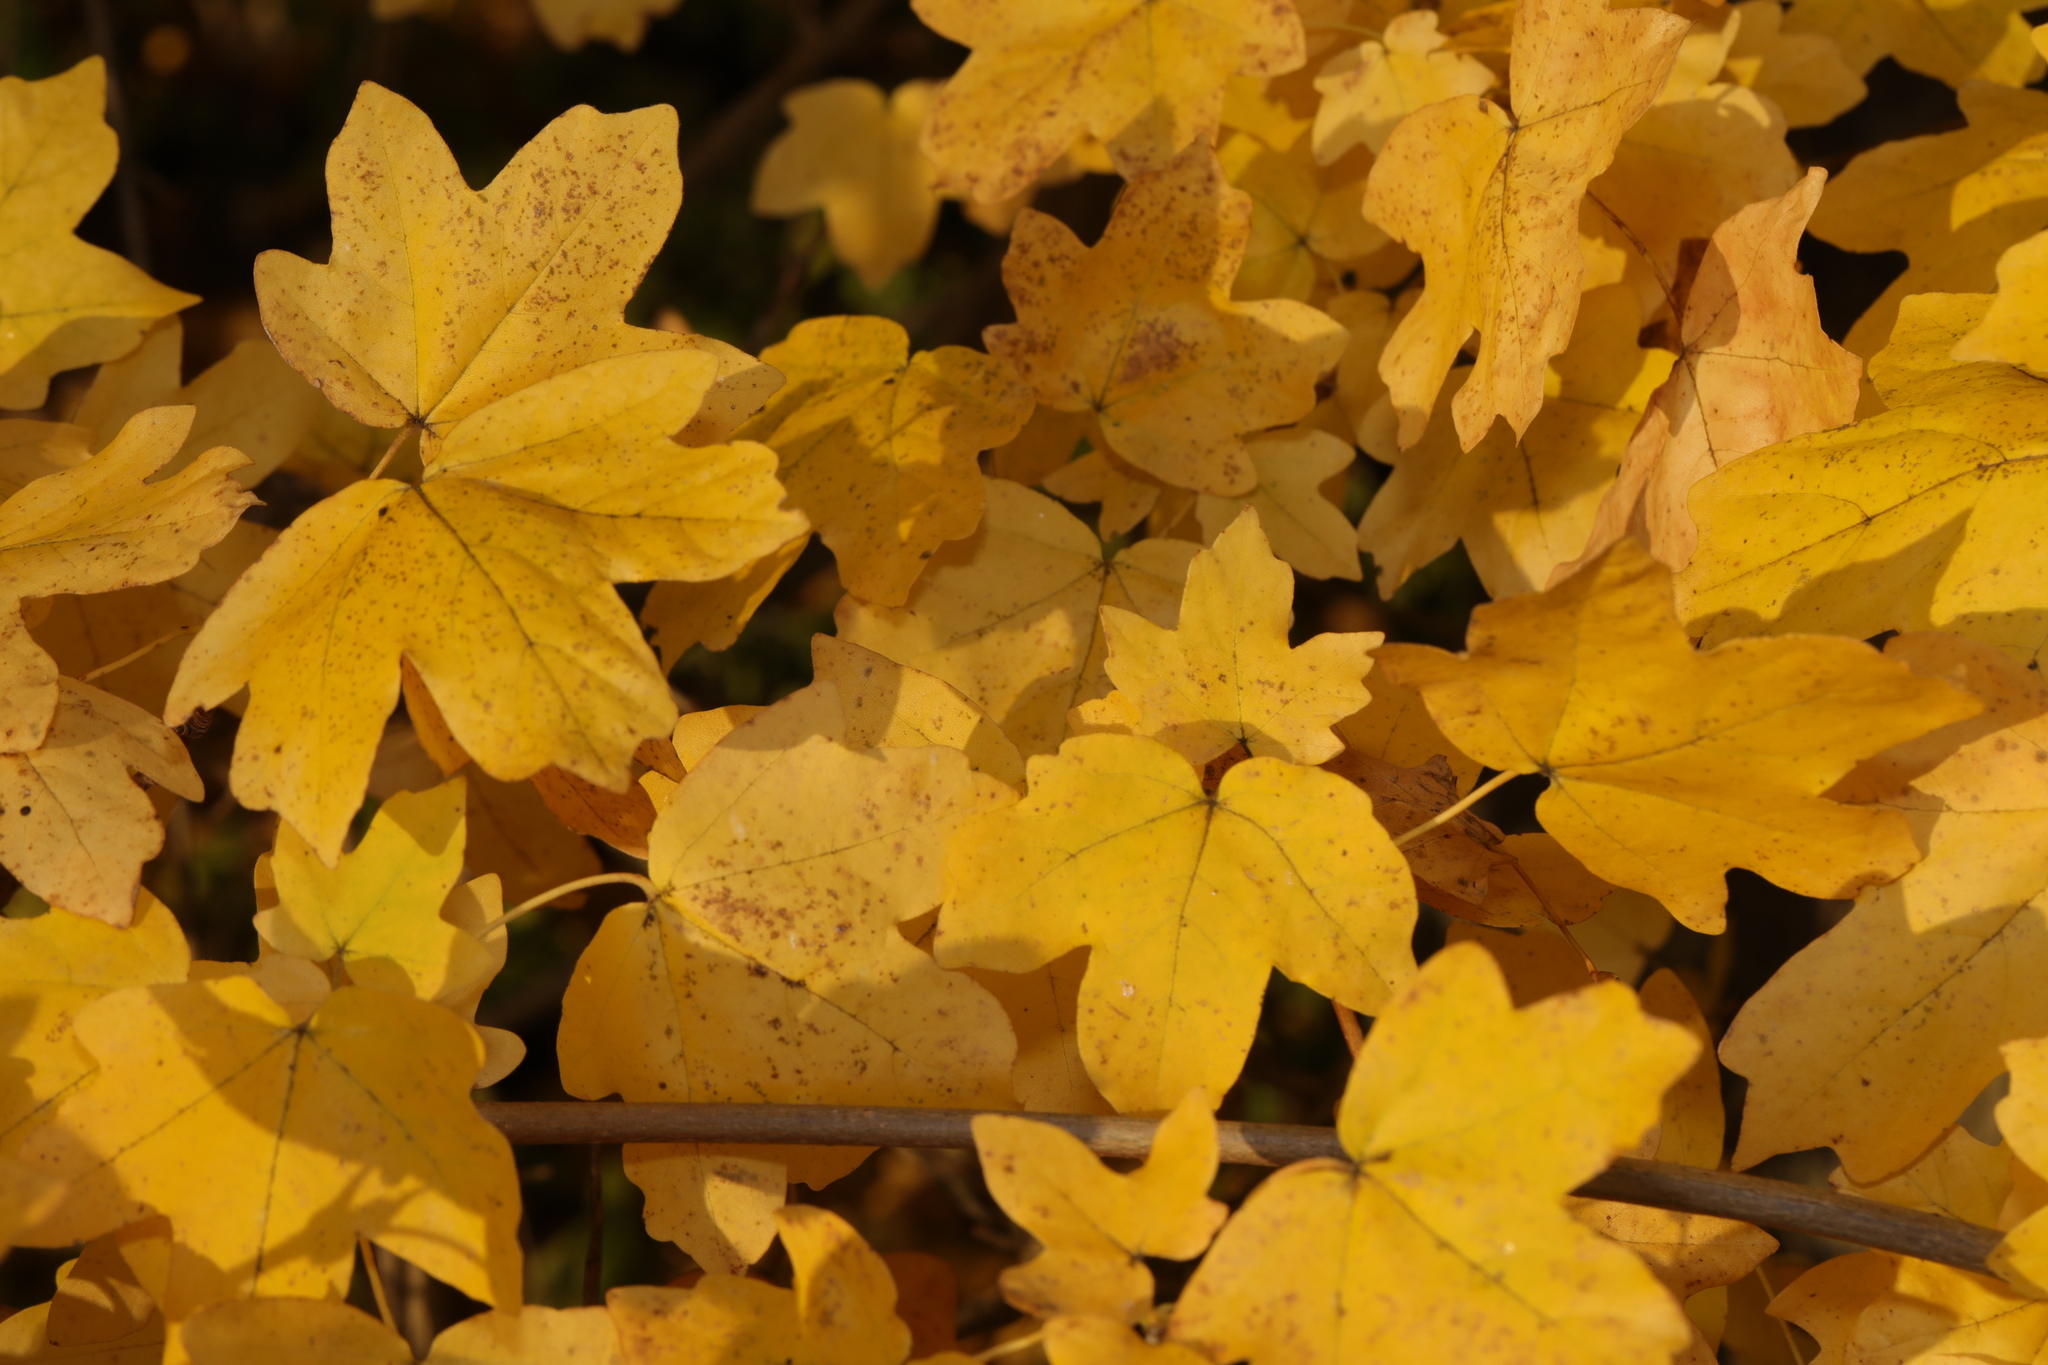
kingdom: Plantae
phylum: Tracheophyta
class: Magnoliopsida
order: Sapindales
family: Sapindaceae
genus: Acer
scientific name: Acer campestre
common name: Field maple
